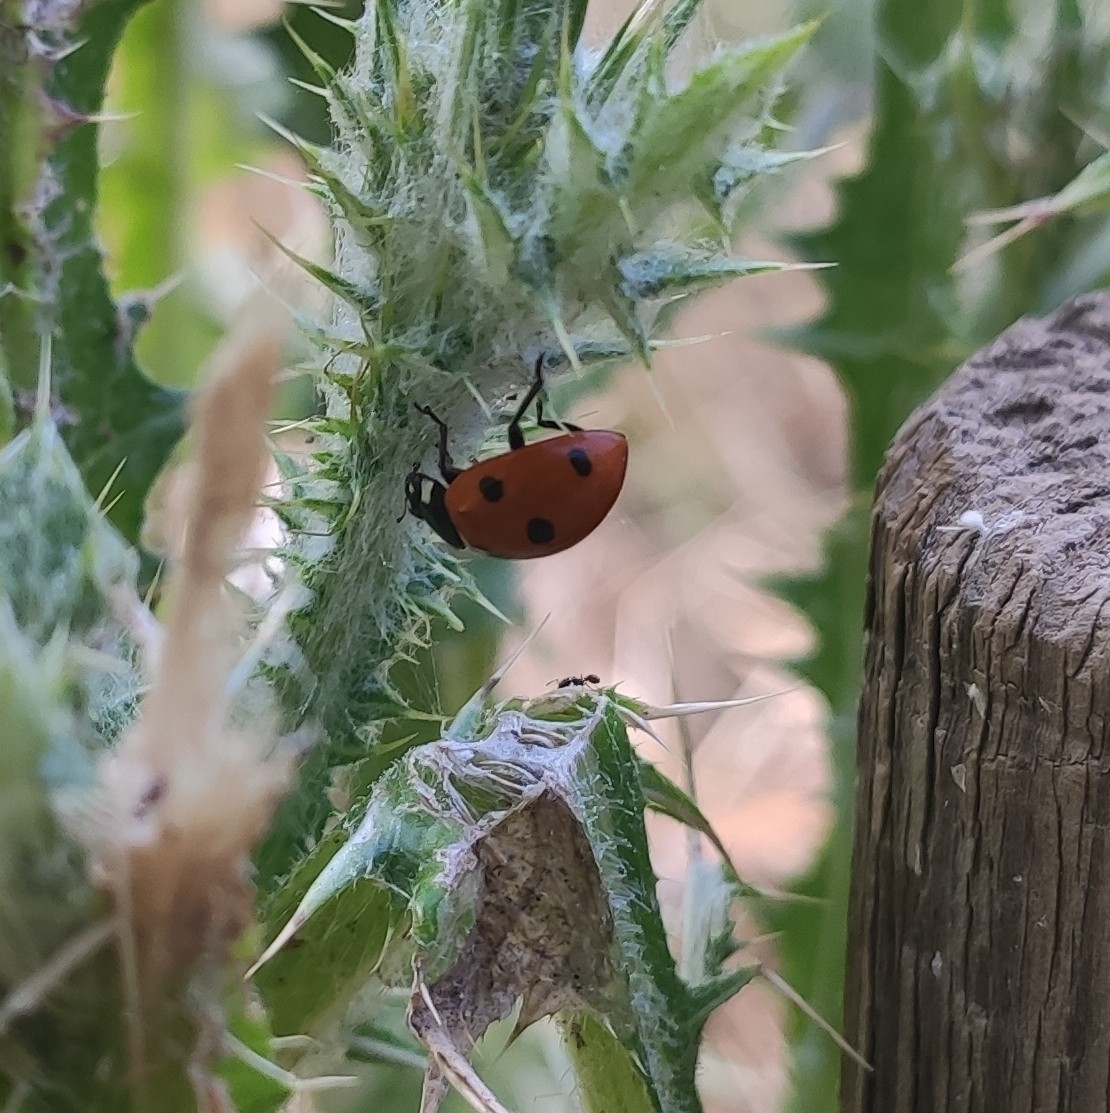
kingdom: Animalia
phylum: Arthropoda
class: Insecta
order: Coleoptera
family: Coccinellidae
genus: Coccinella
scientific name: Coccinella septempunctata
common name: Sevenspotted lady beetle
